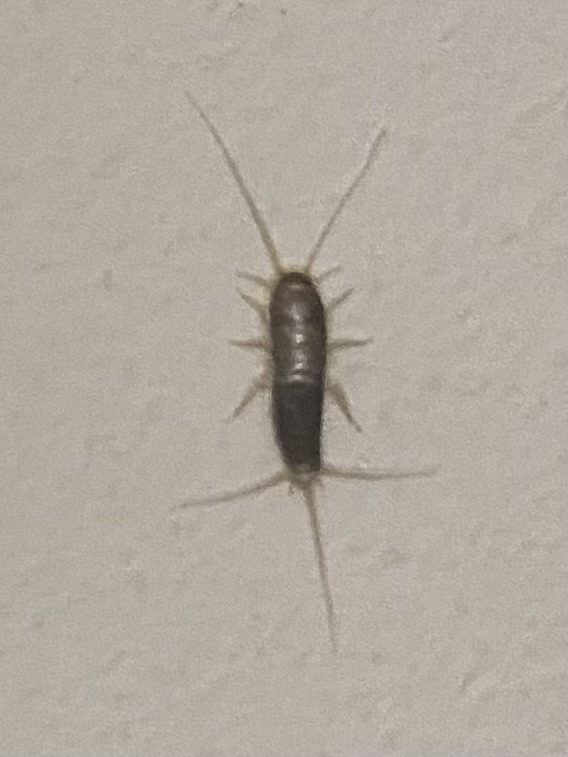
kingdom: Animalia
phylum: Arthropoda
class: Insecta
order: Zygentoma
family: Lepismatidae
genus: Ctenolepisma
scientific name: Ctenolepisma longicaudatum
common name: Silverfish
